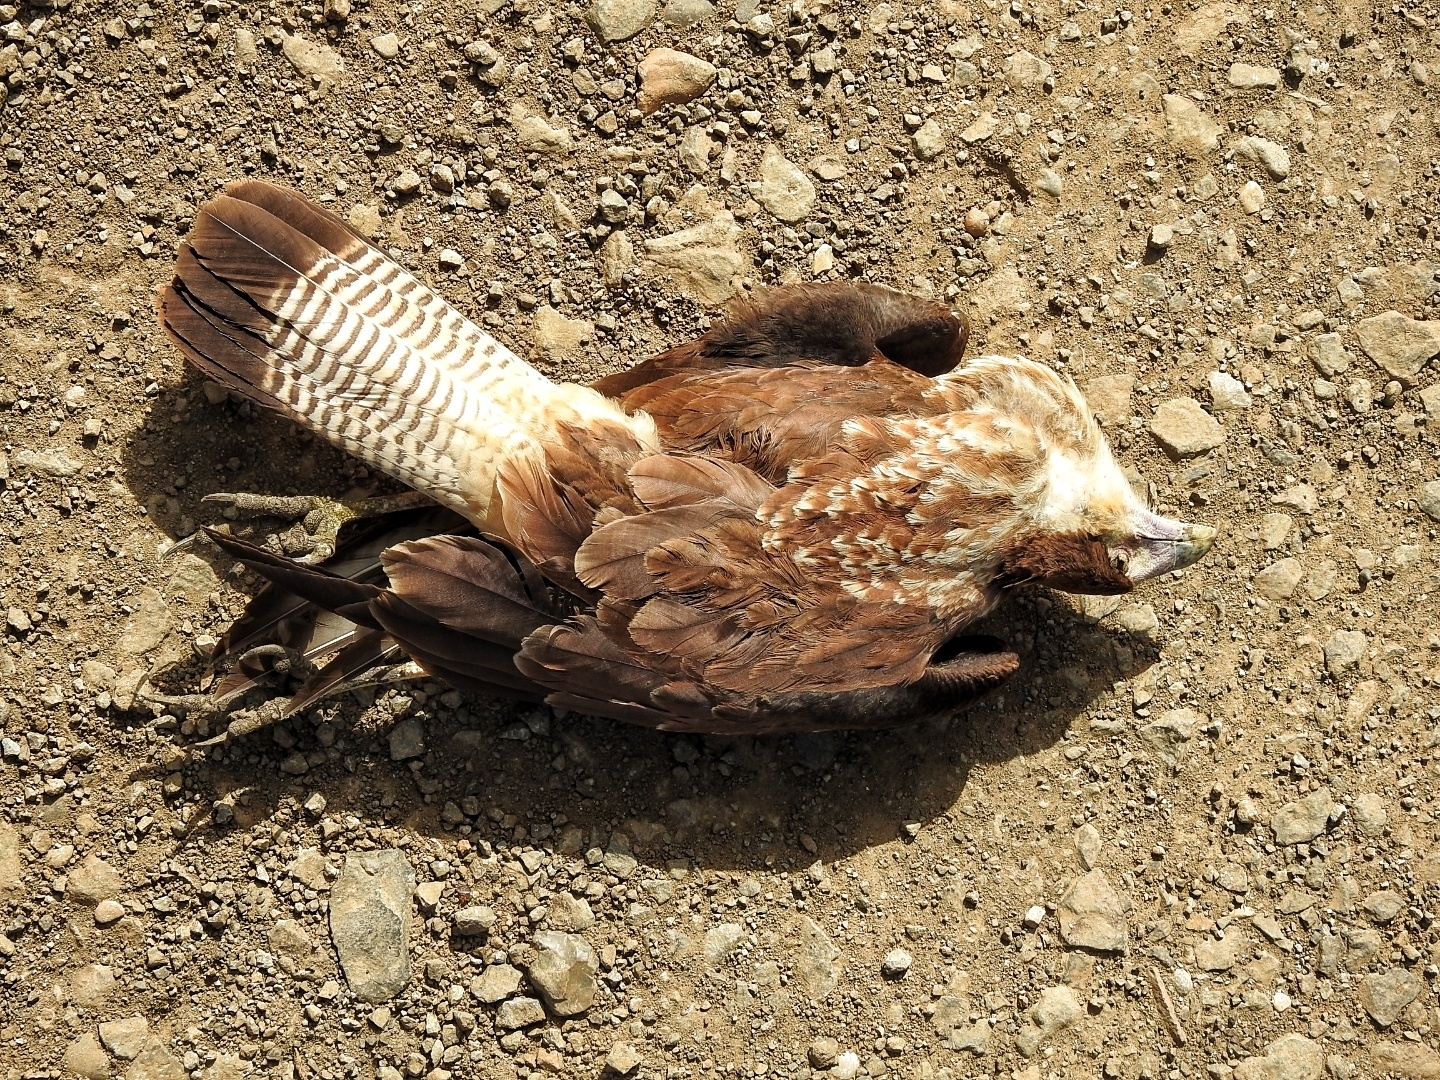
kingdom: Animalia
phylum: Chordata
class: Aves
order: Falconiformes
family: Falconidae
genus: Caracara
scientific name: Caracara plancus
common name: Southern caracara
